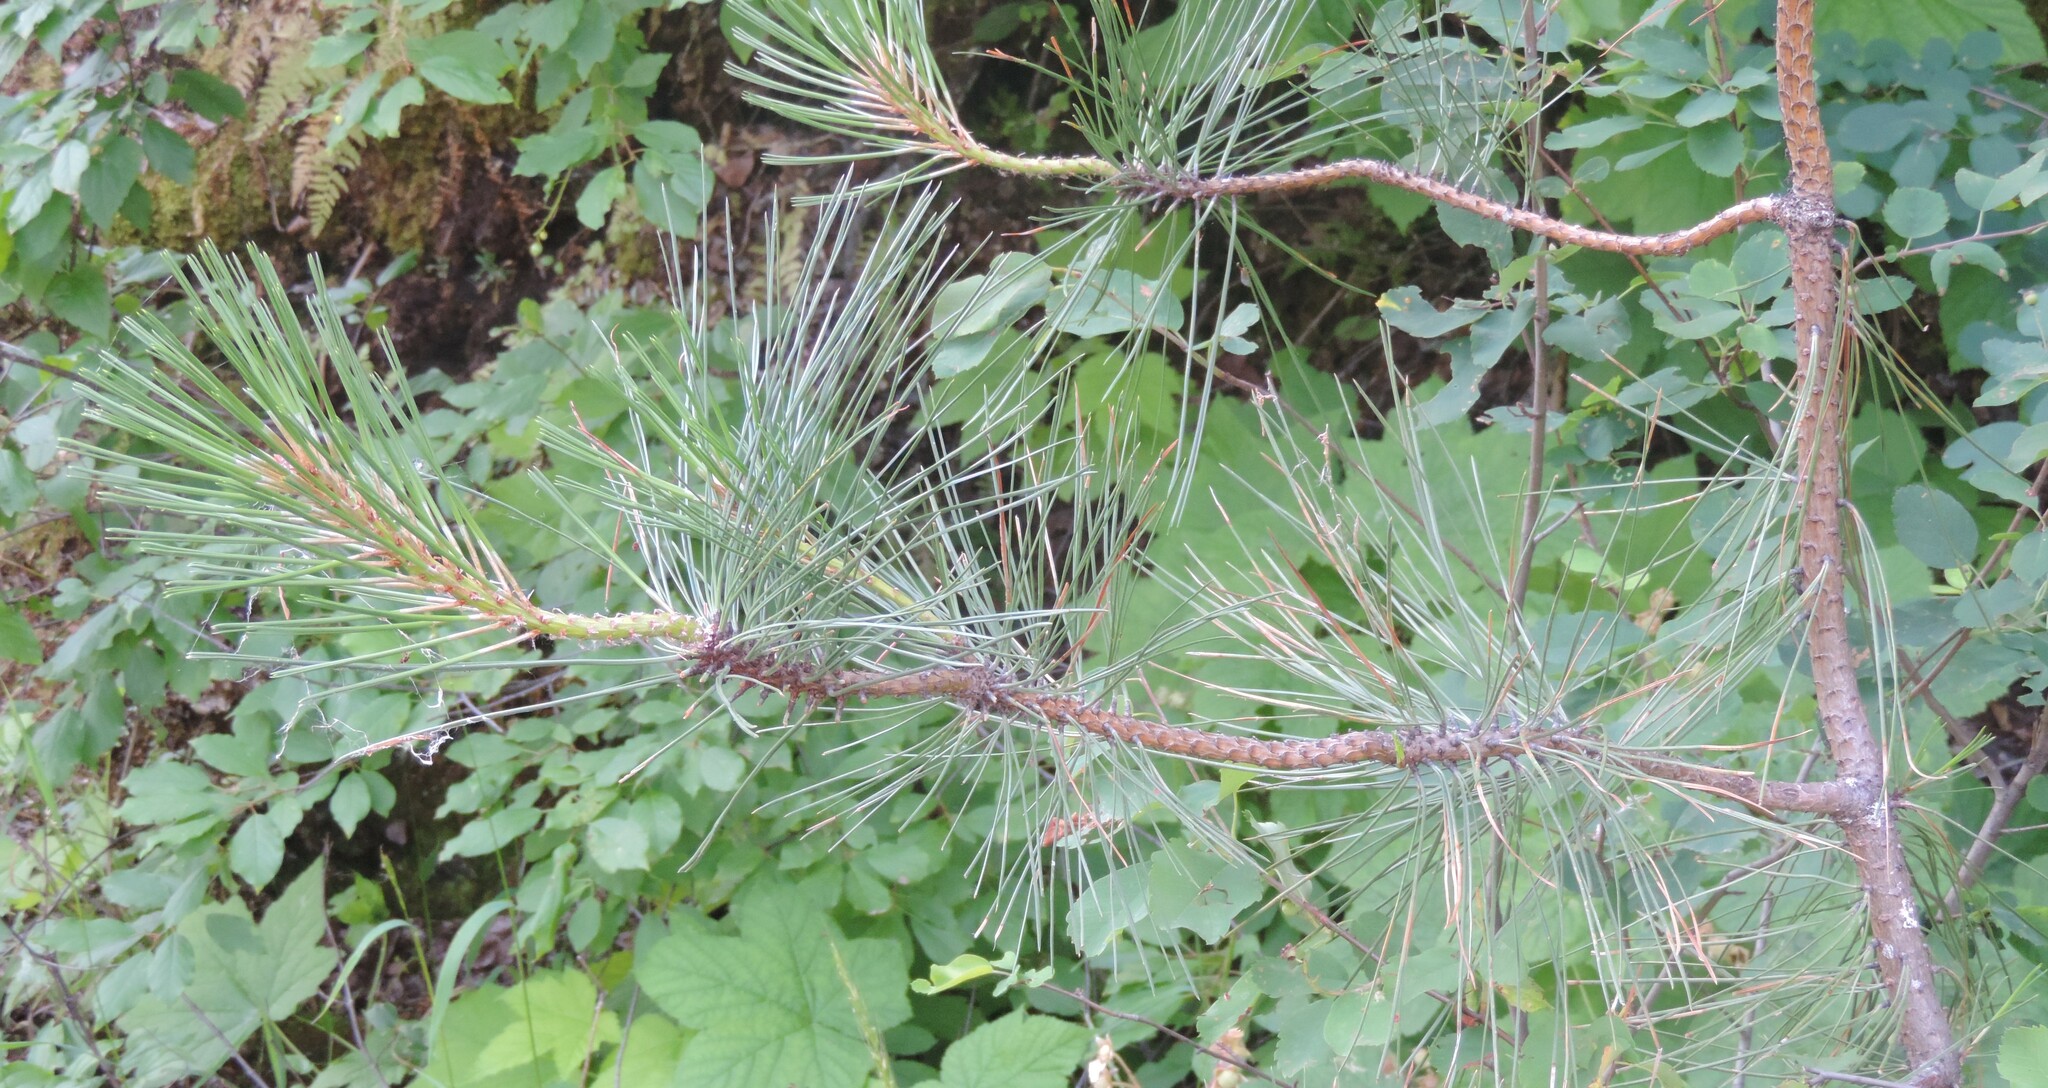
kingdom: Plantae
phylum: Tracheophyta
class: Pinopsida
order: Pinales
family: Pinaceae
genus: Pinus
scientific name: Pinus ponderosa
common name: Western yellow-pine
